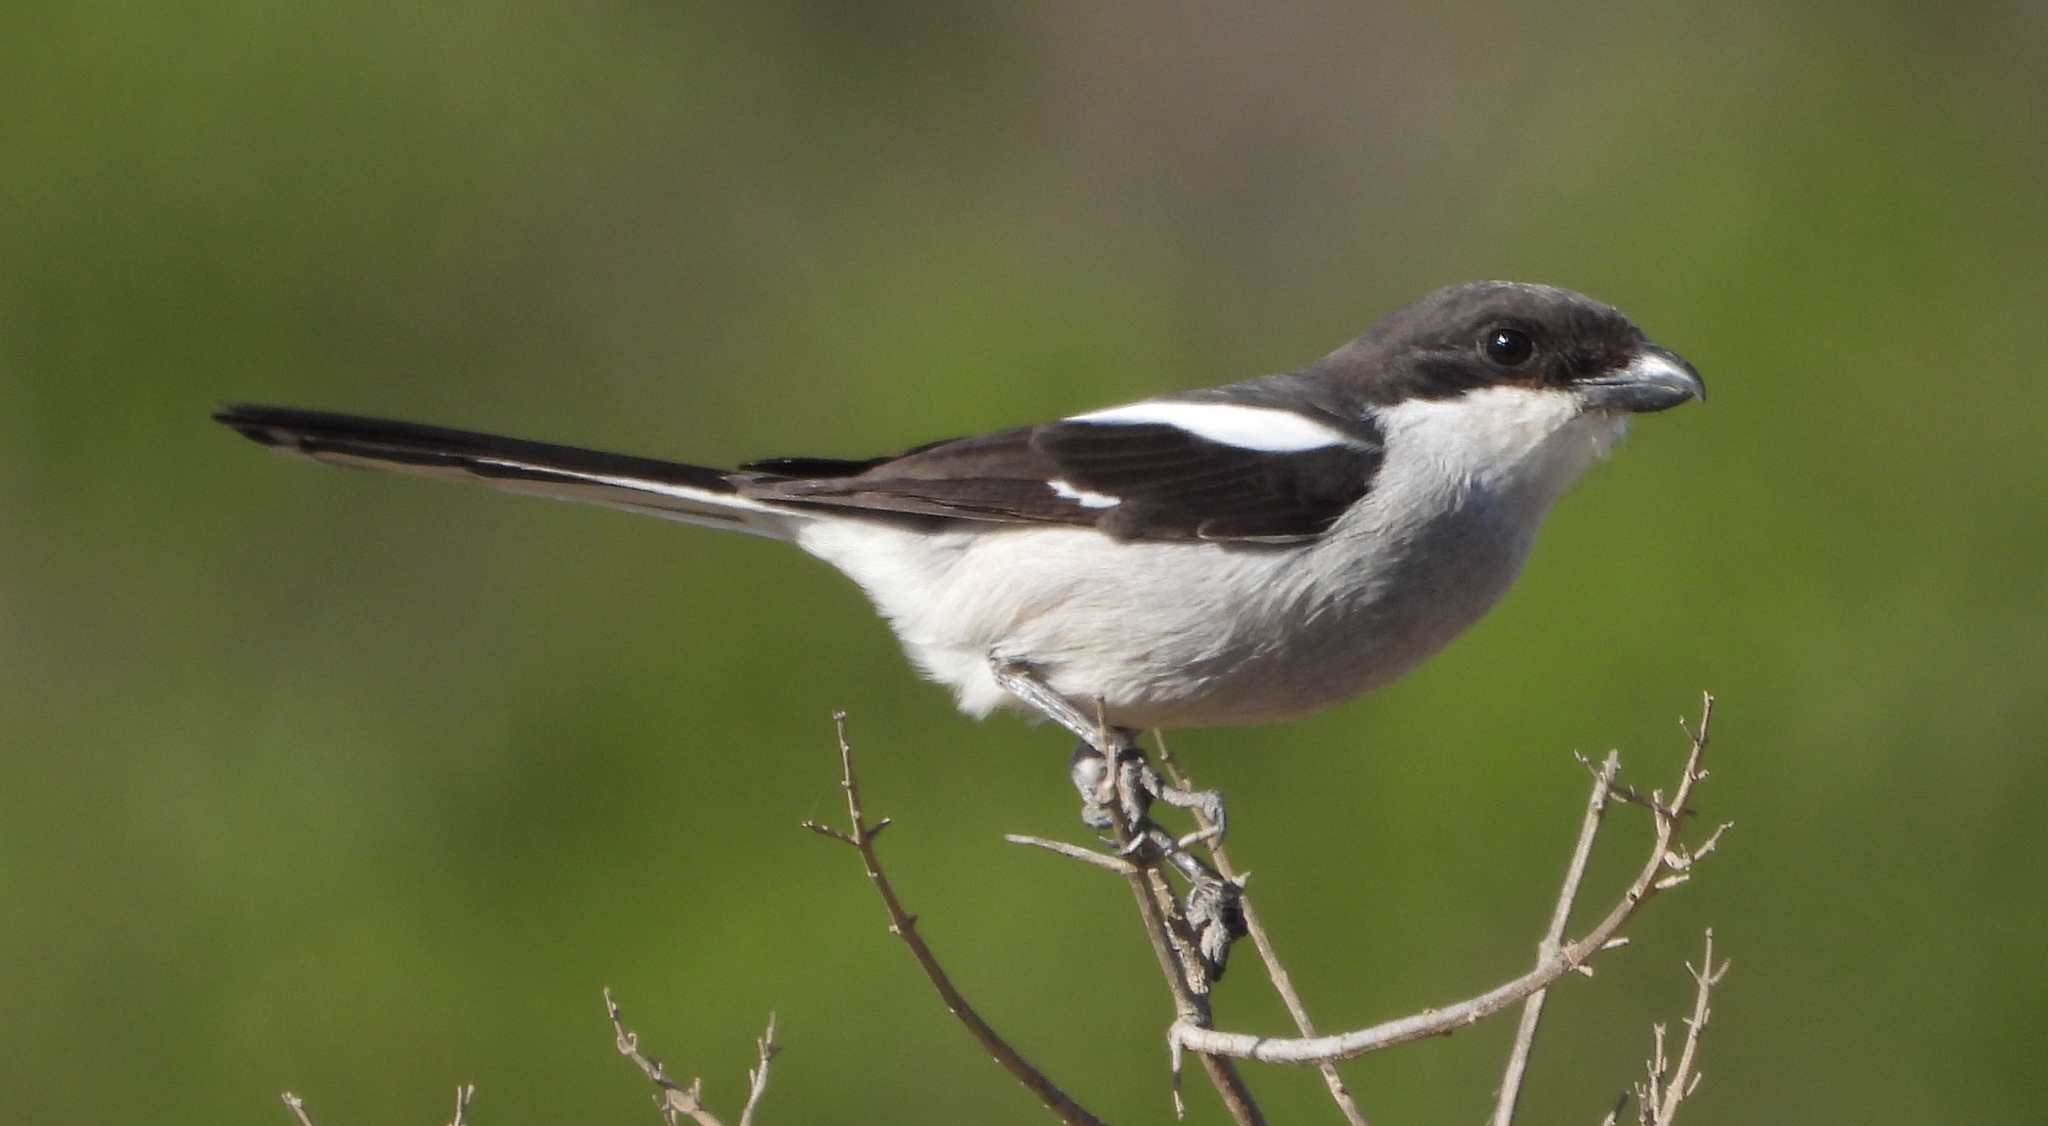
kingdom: Animalia
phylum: Chordata
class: Aves
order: Passeriformes
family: Laniidae
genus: Lanius
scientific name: Lanius collaris
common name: Southern fiscal
